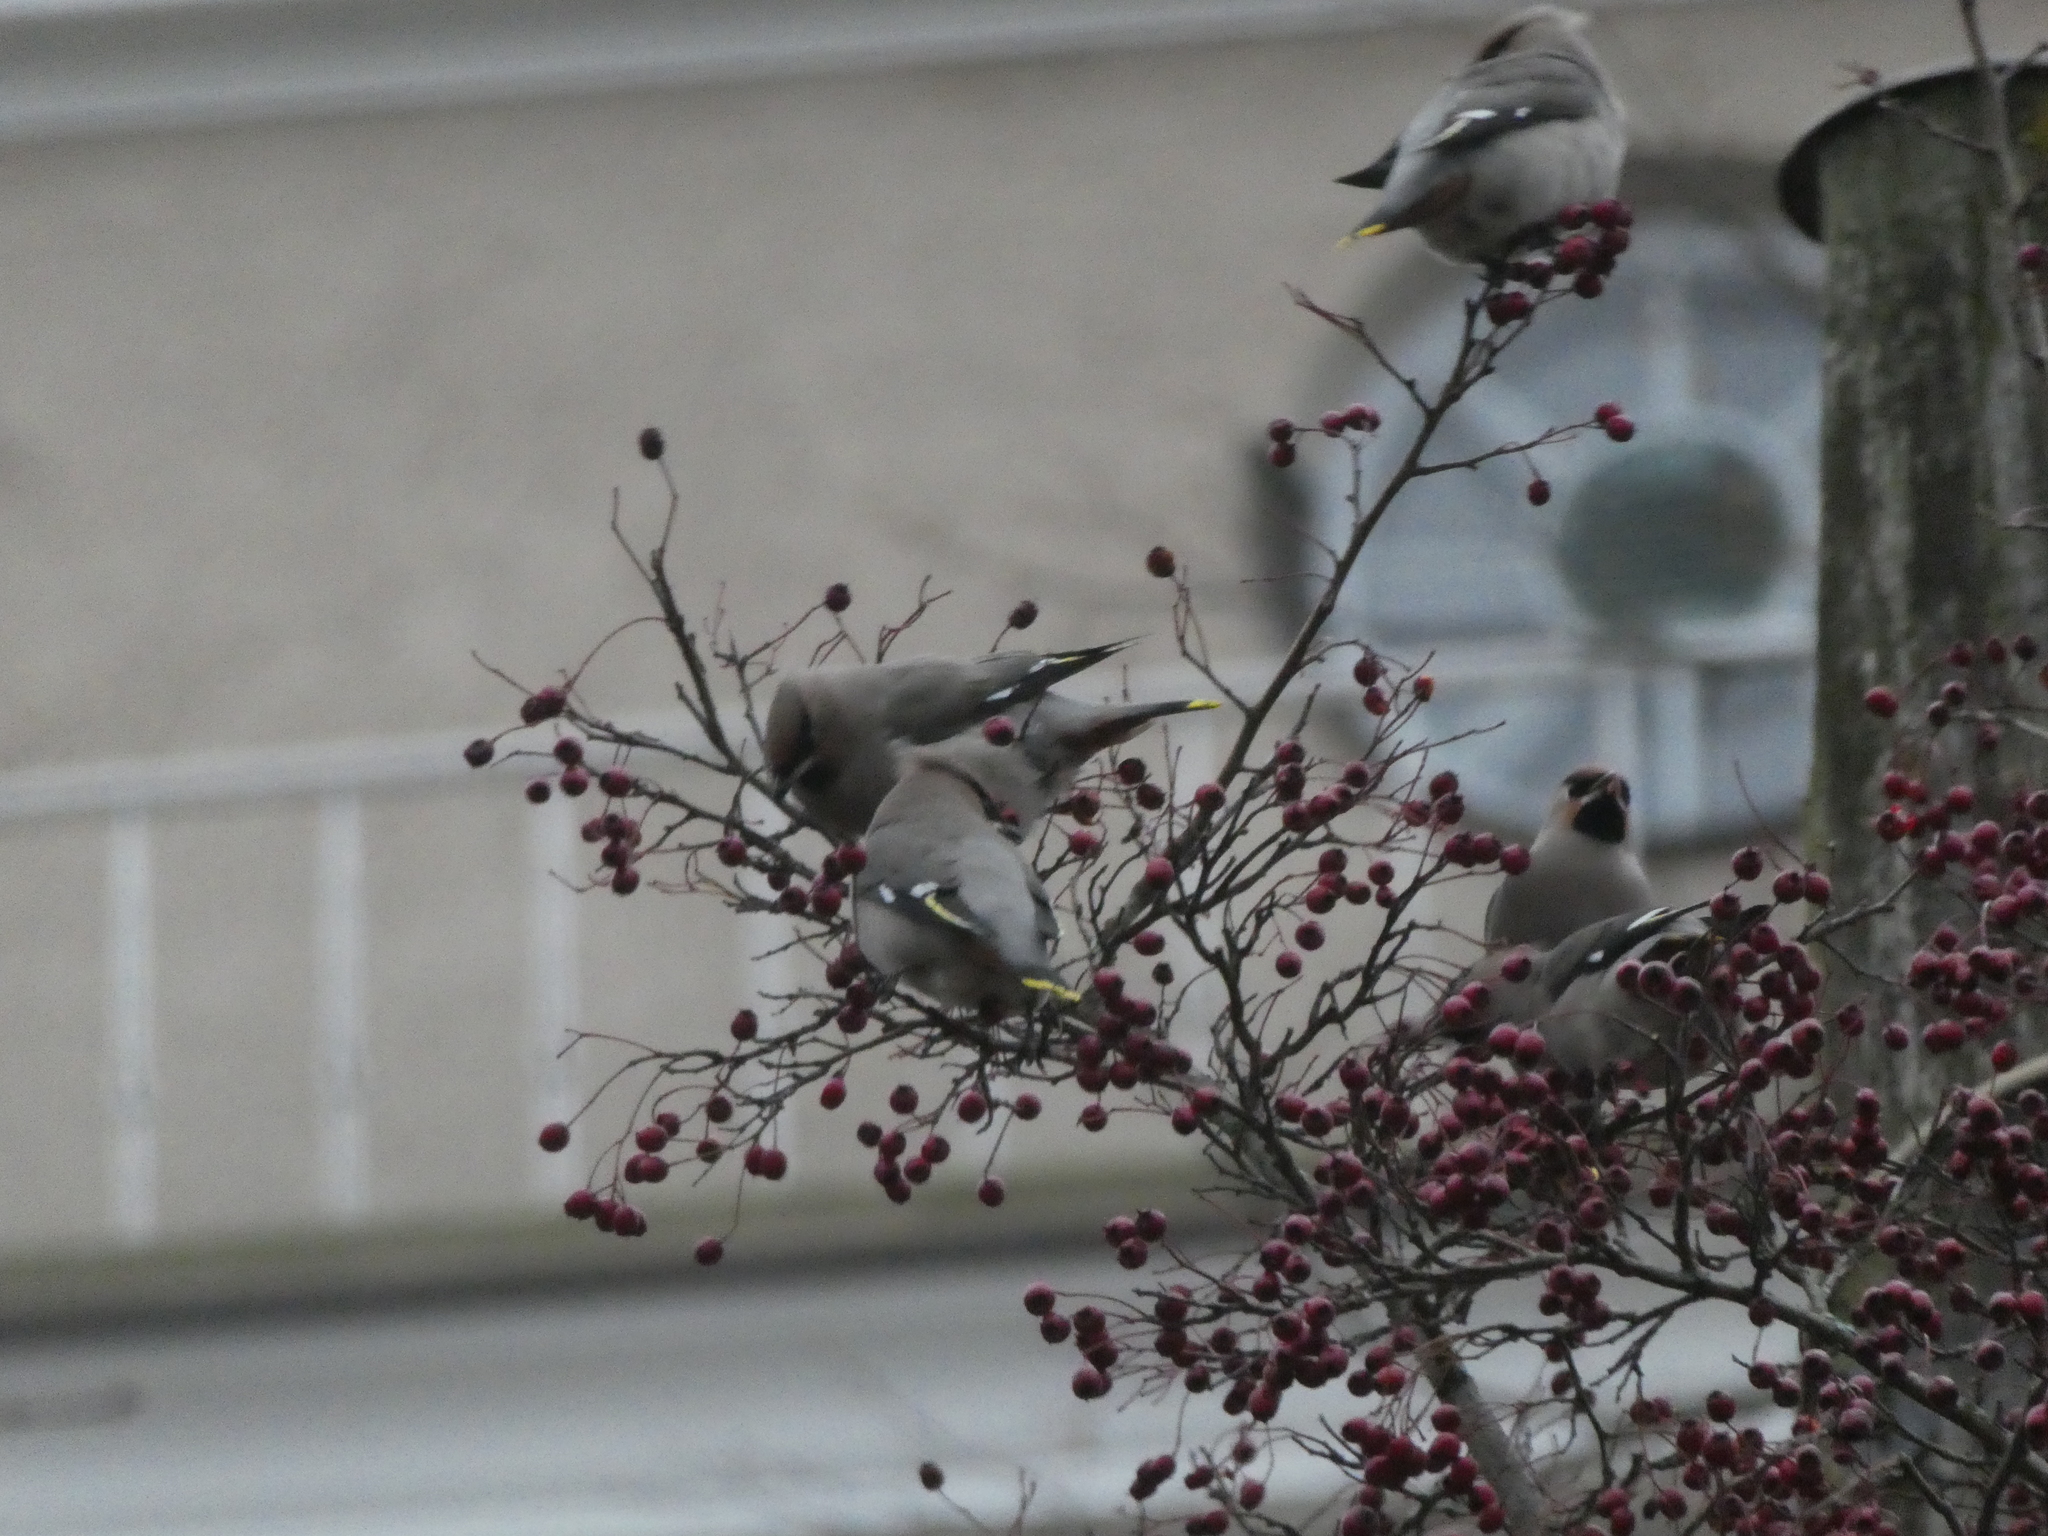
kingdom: Animalia
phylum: Chordata
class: Aves
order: Passeriformes
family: Bombycillidae
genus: Bombycilla
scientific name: Bombycilla garrulus
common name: Bohemian waxwing
